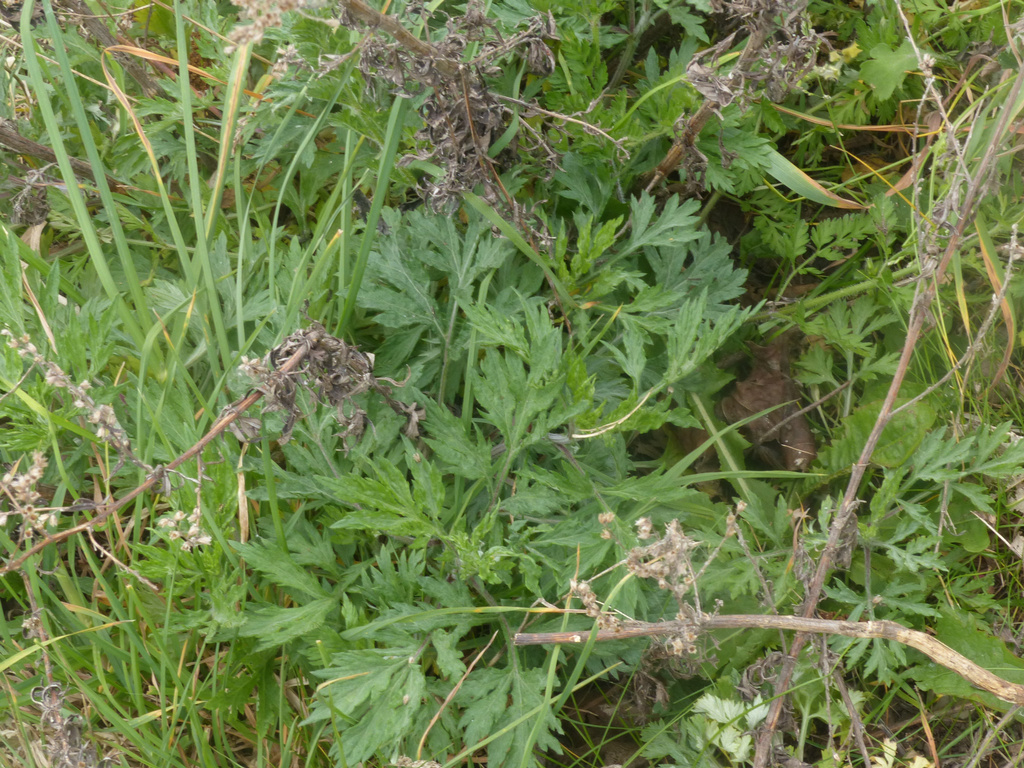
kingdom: Plantae
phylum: Tracheophyta
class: Magnoliopsida
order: Asterales
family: Asteraceae
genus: Artemisia
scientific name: Artemisia vulgaris
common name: Mugwort
